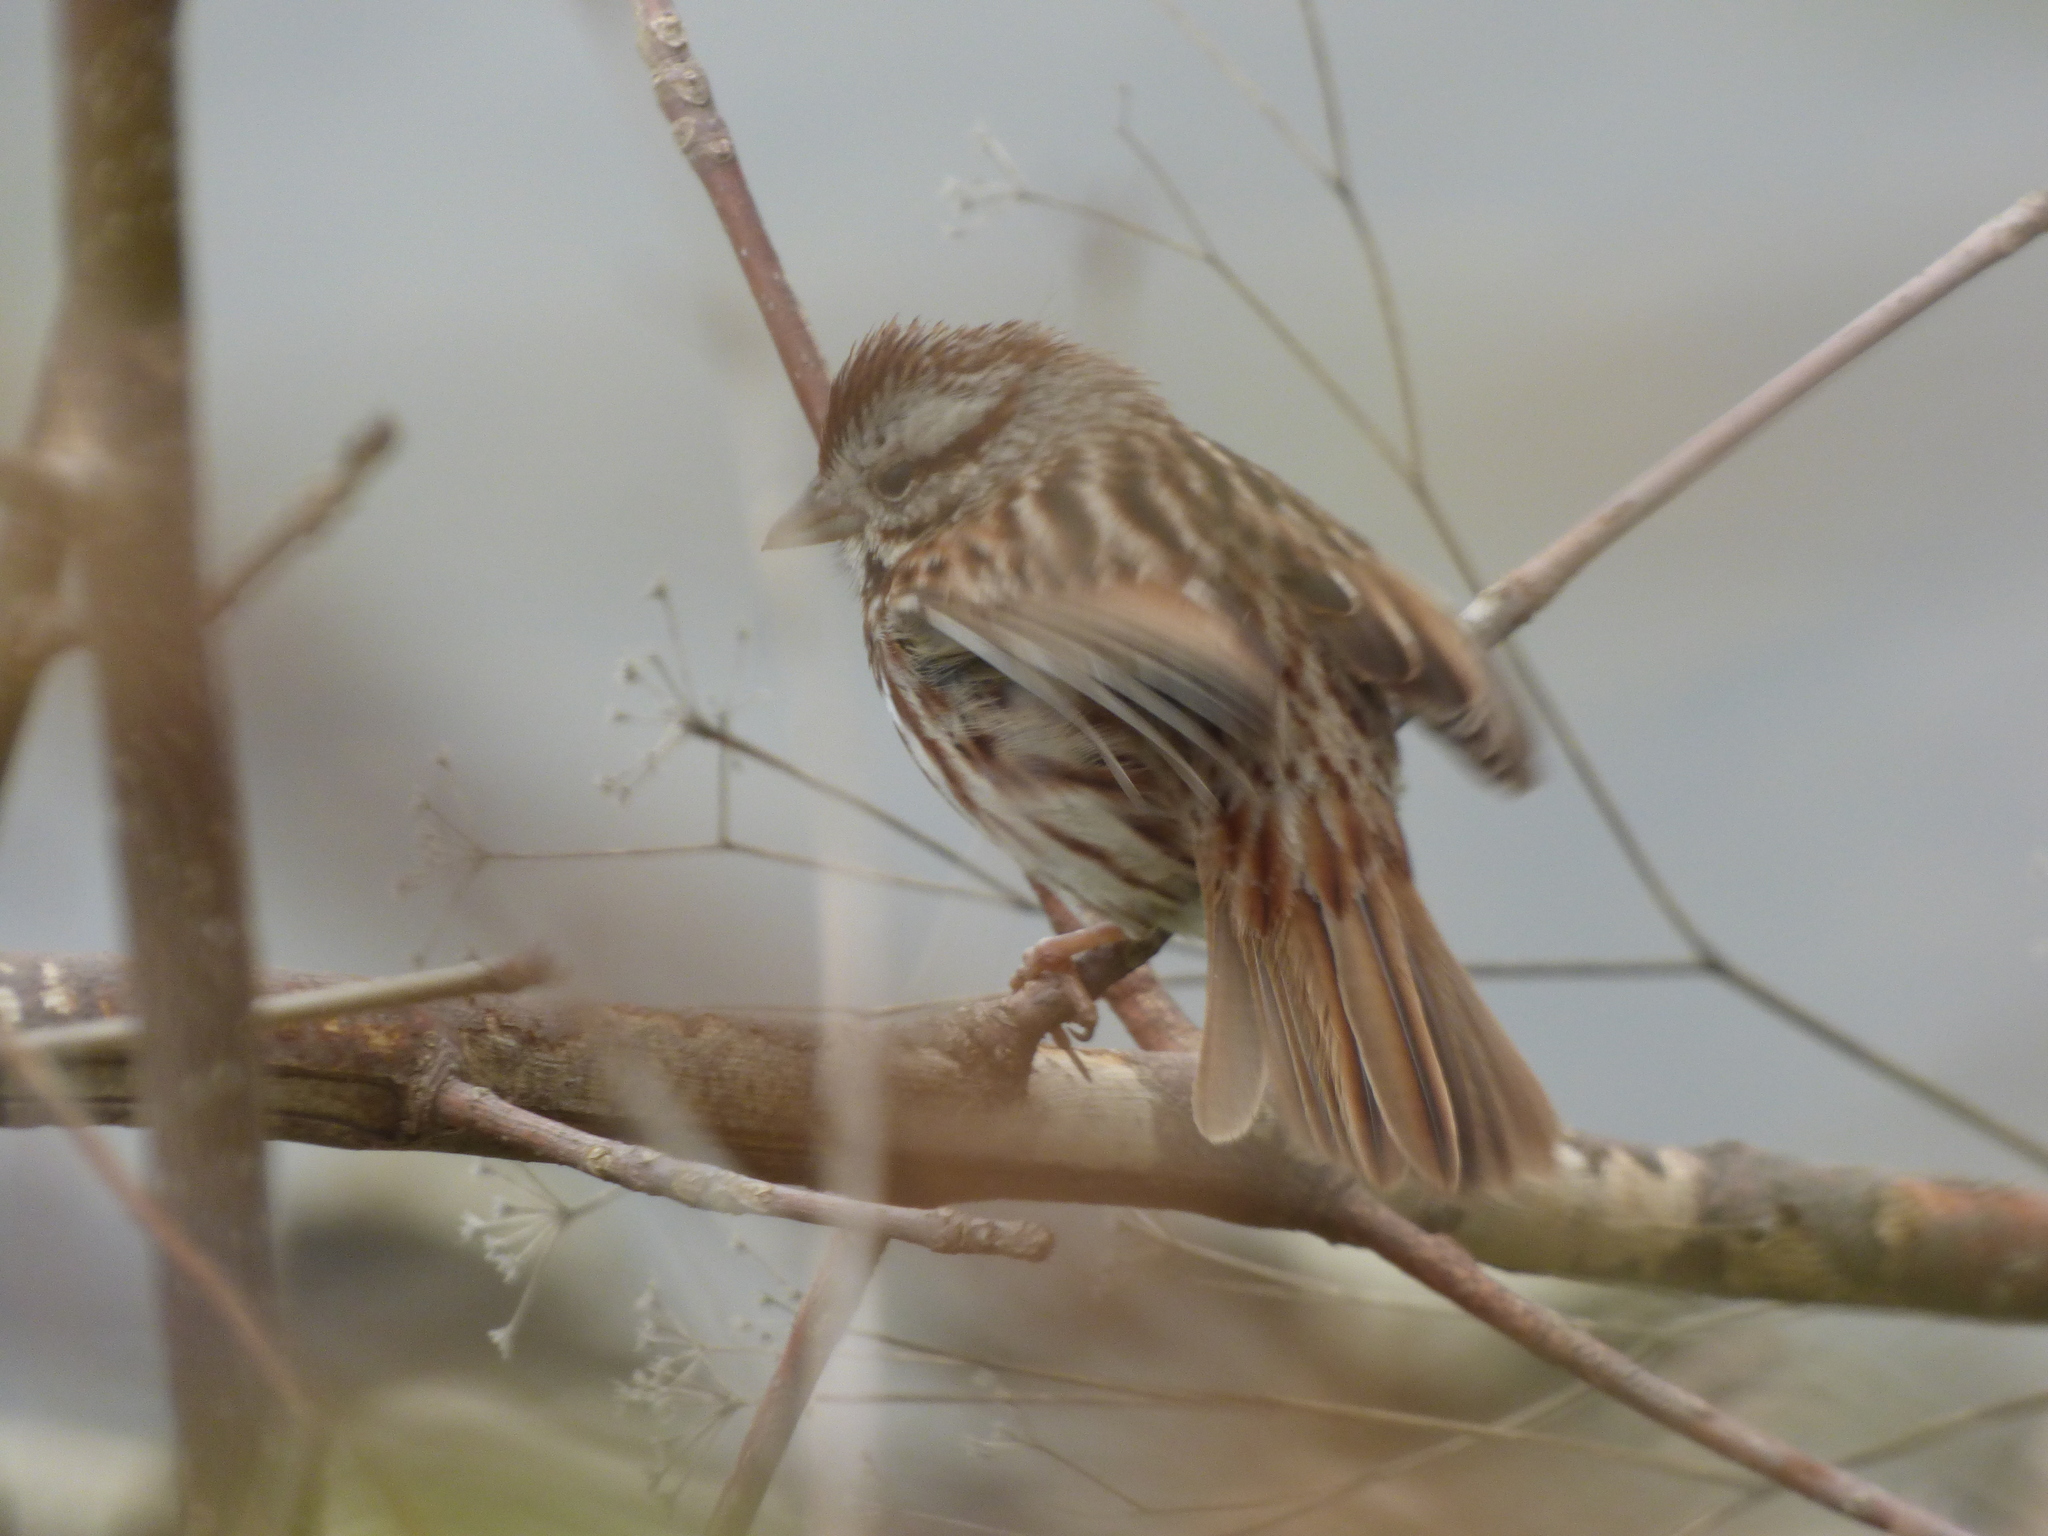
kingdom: Animalia
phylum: Chordata
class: Aves
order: Passeriformes
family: Passerellidae
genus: Melospiza
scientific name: Melospiza melodia
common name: Song sparrow
